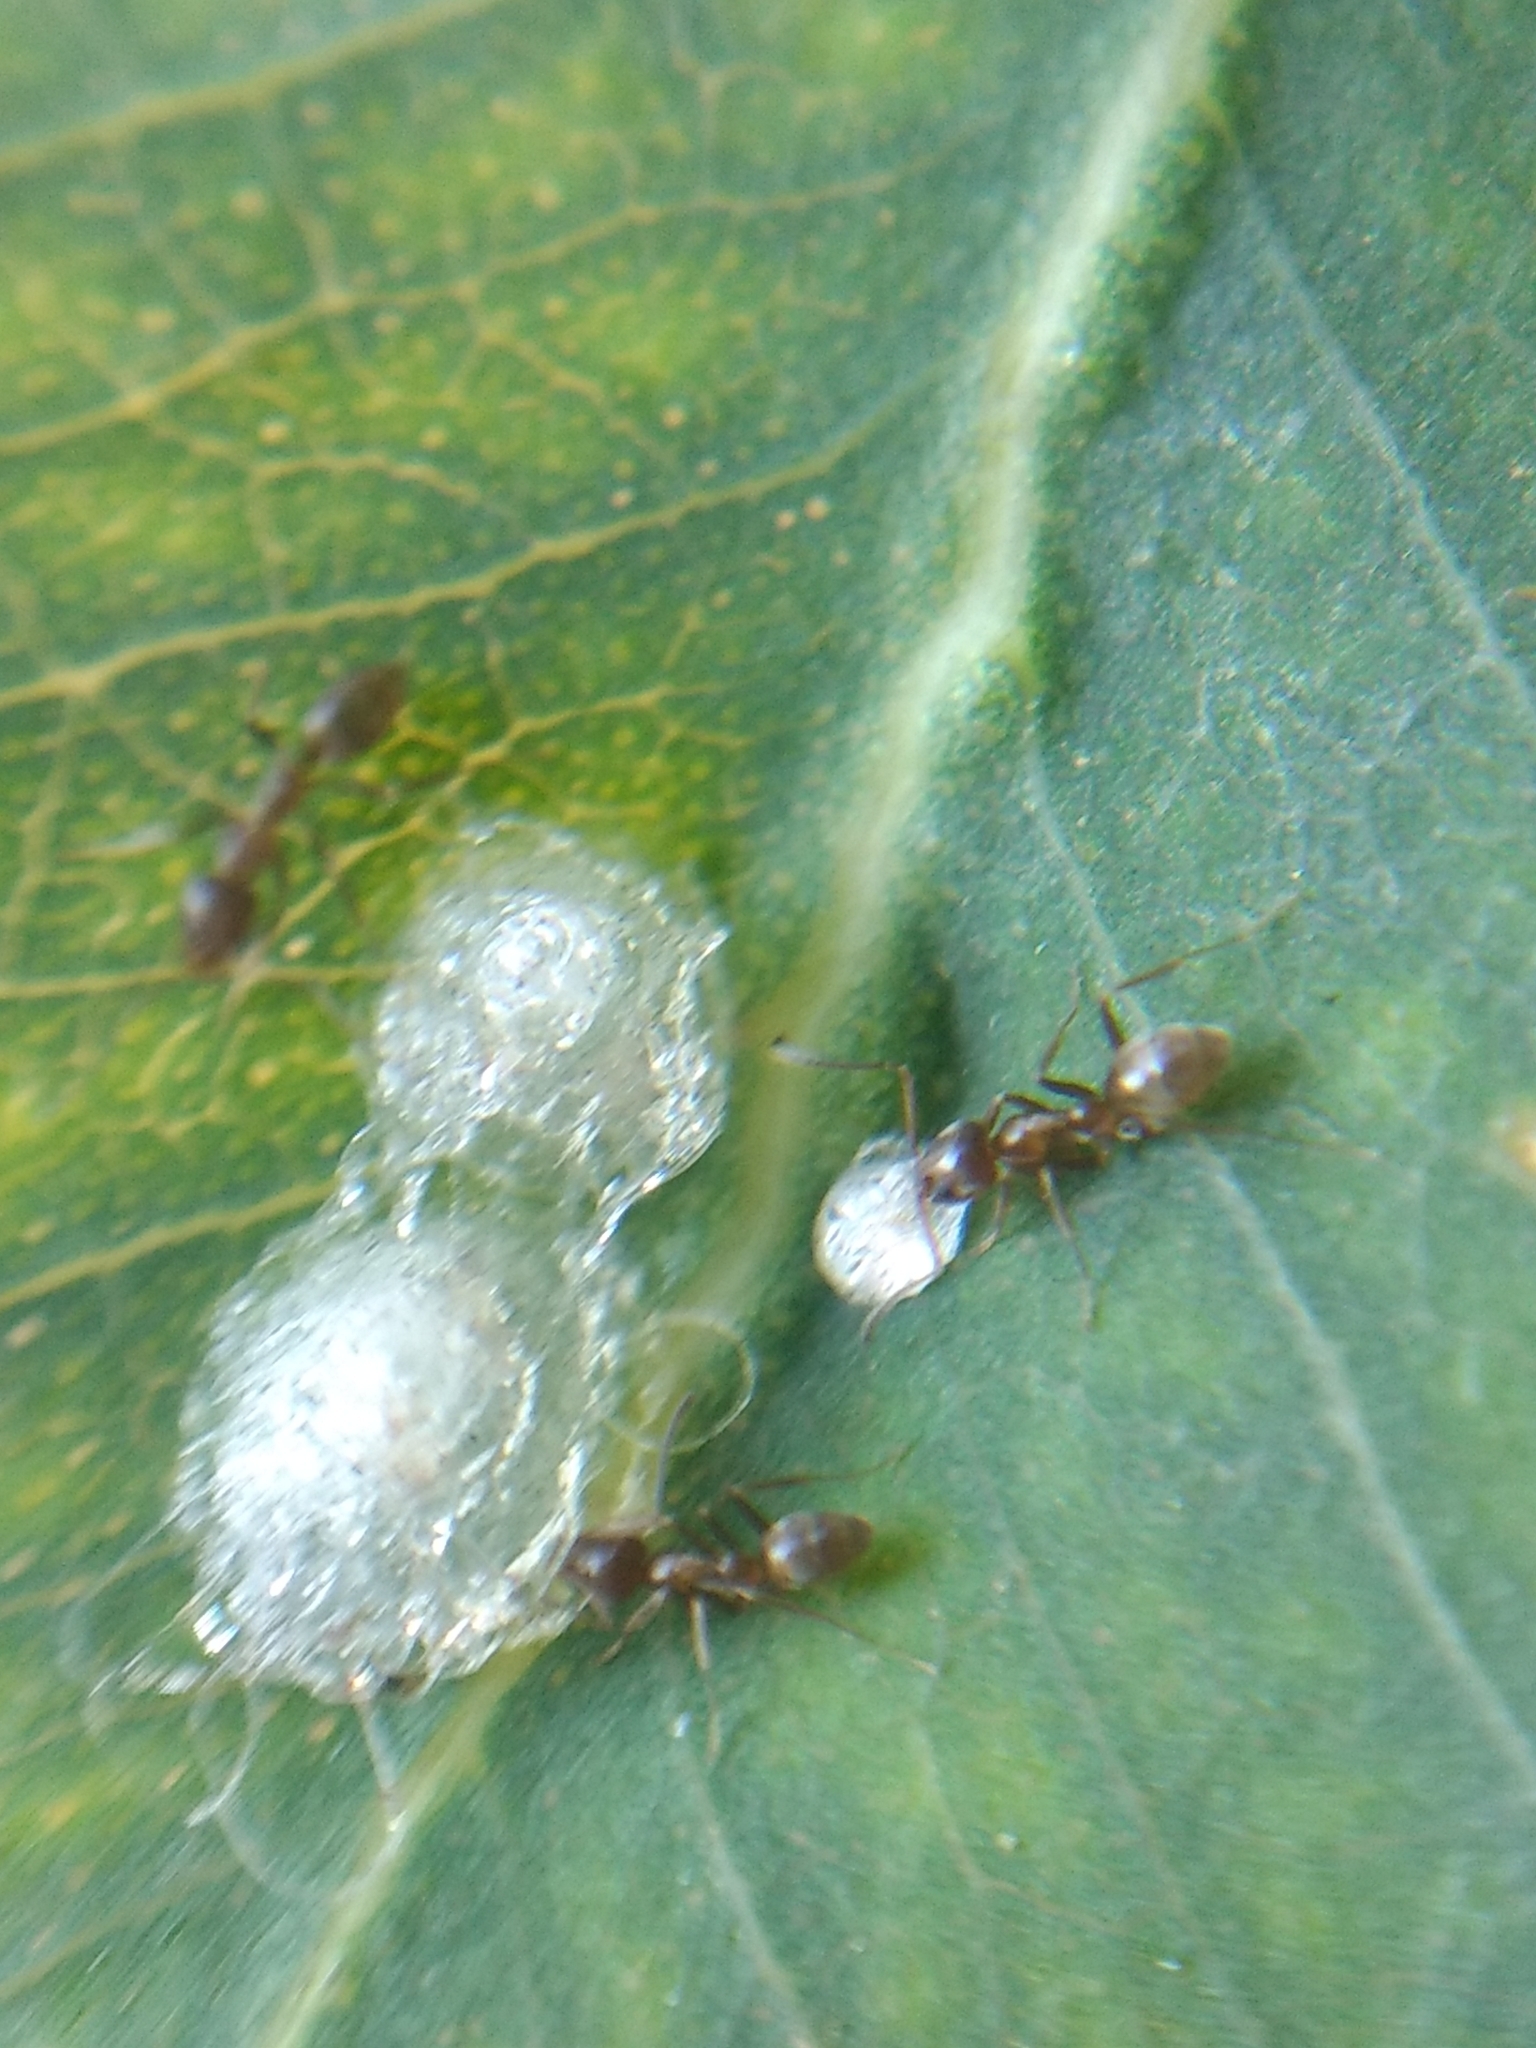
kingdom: Animalia
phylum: Arthropoda
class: Insecta
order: Hemiptera
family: Aphalaridae
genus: Glycaspis
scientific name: Glycaspis brimblecombei
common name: Red gum lerp psyllid
